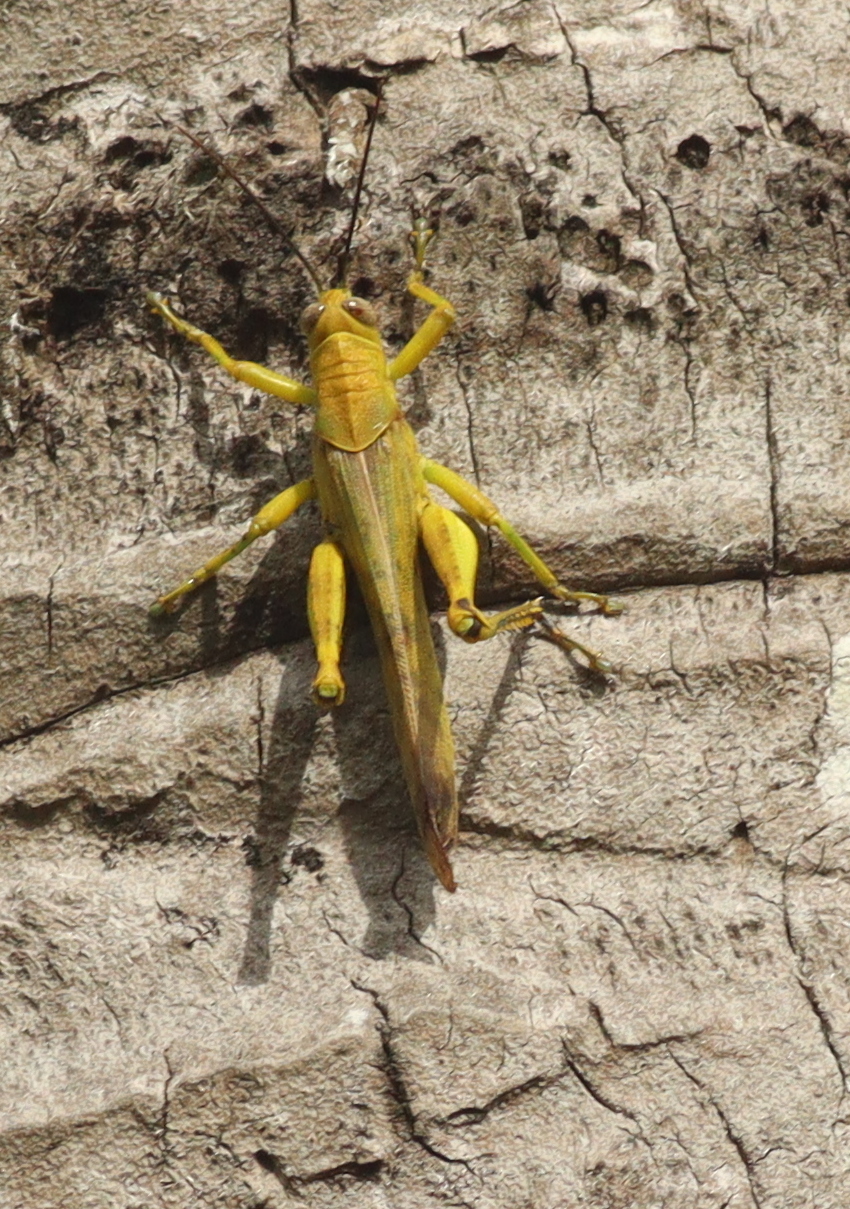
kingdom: Animalia
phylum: Arthropoda
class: Insecta
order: Orthoptera
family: Acrididae
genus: Valanga
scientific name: Valanga nigricornis
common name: Javanese bird grasshopper
